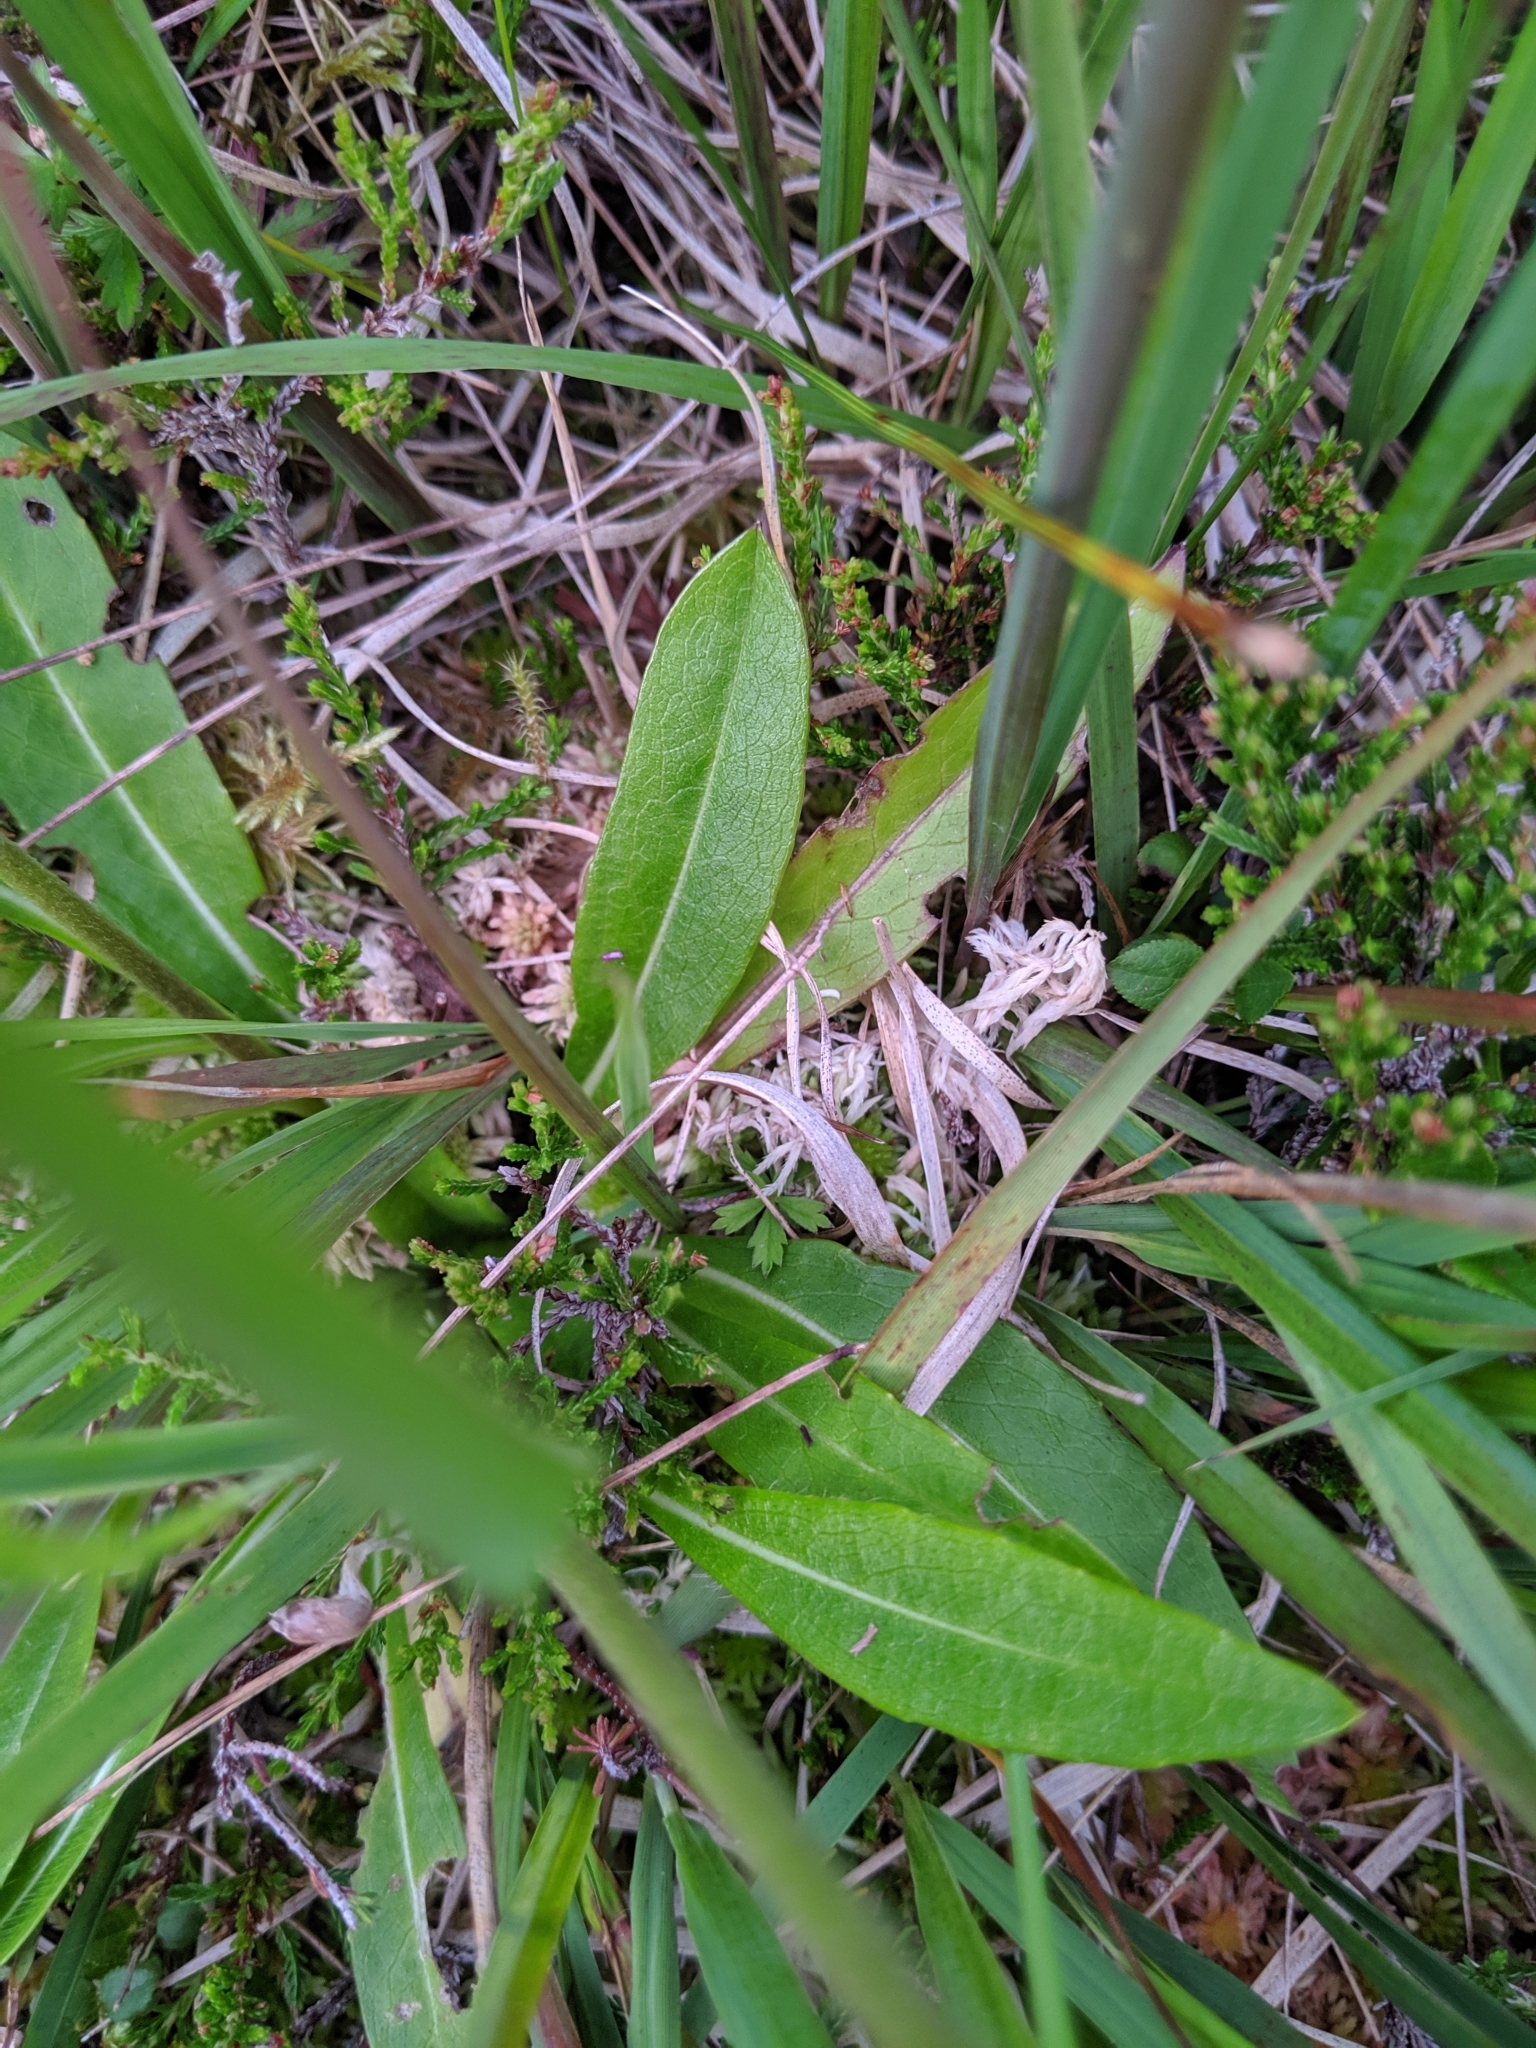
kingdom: Plantae
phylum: Tracheophyta
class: Magnoliopsida
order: Dipsacales
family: Caprifoliaceae
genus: Succisa
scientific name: Succisa pratensis
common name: Devil's-bit
